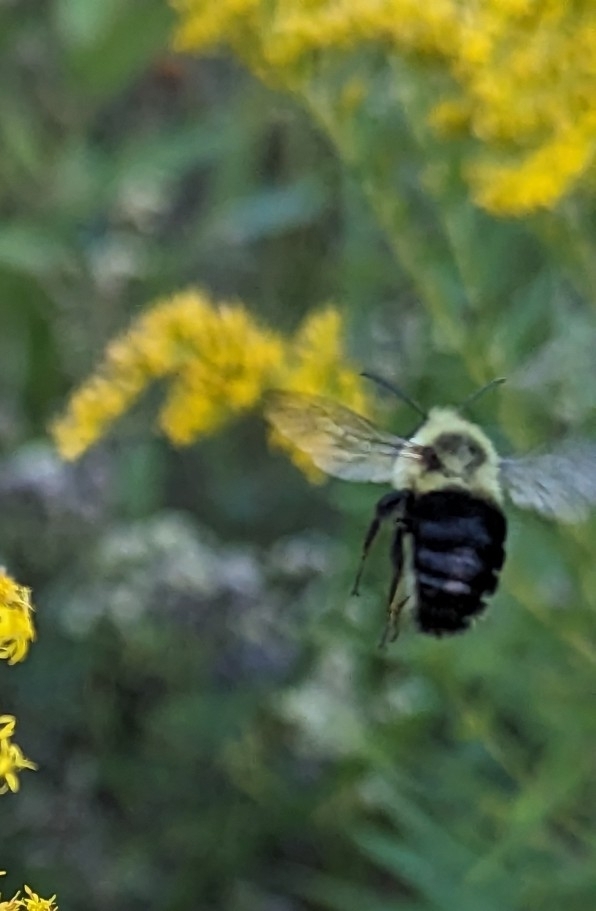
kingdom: Animalia
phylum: Arthropoda
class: Insecta
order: Hymenoptera
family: Apidae
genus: Bombus
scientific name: Bombus impatiens
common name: Common eastern bumble bee
